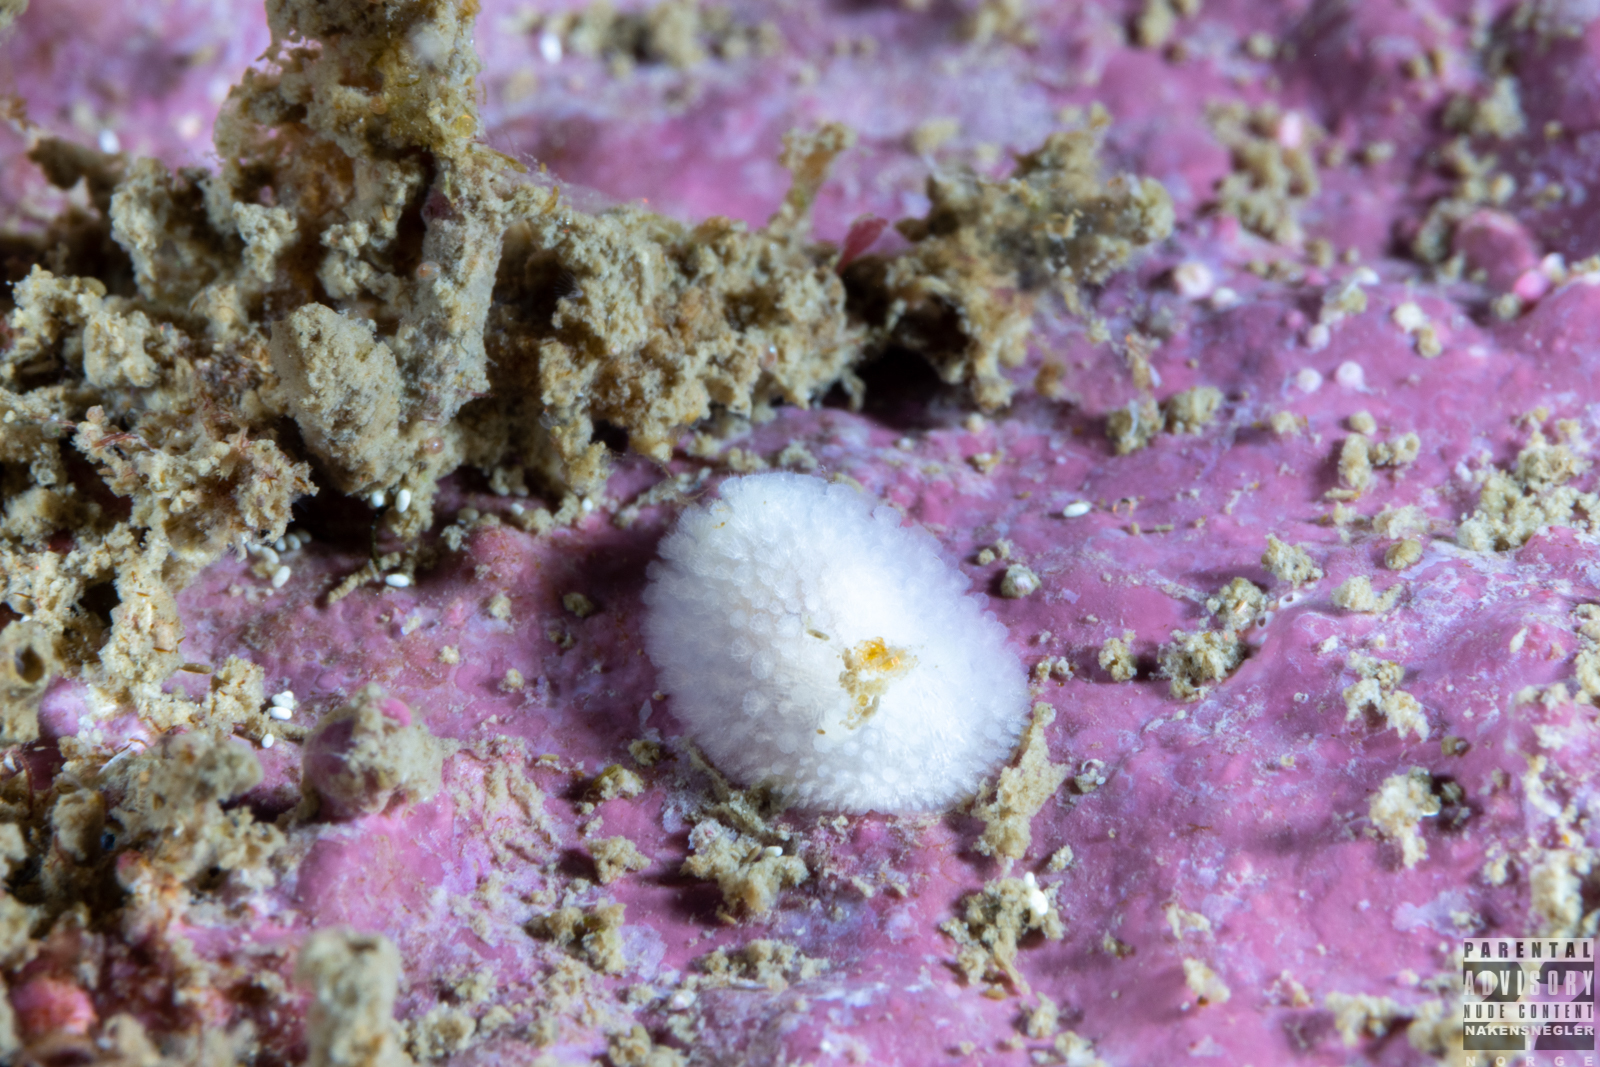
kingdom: Animalia
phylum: Mollusca
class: Gastropoda
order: Nudibranchia
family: Onchidorididae
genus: Onchidoris
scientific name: Onchidoris muricata
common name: Rough doris
